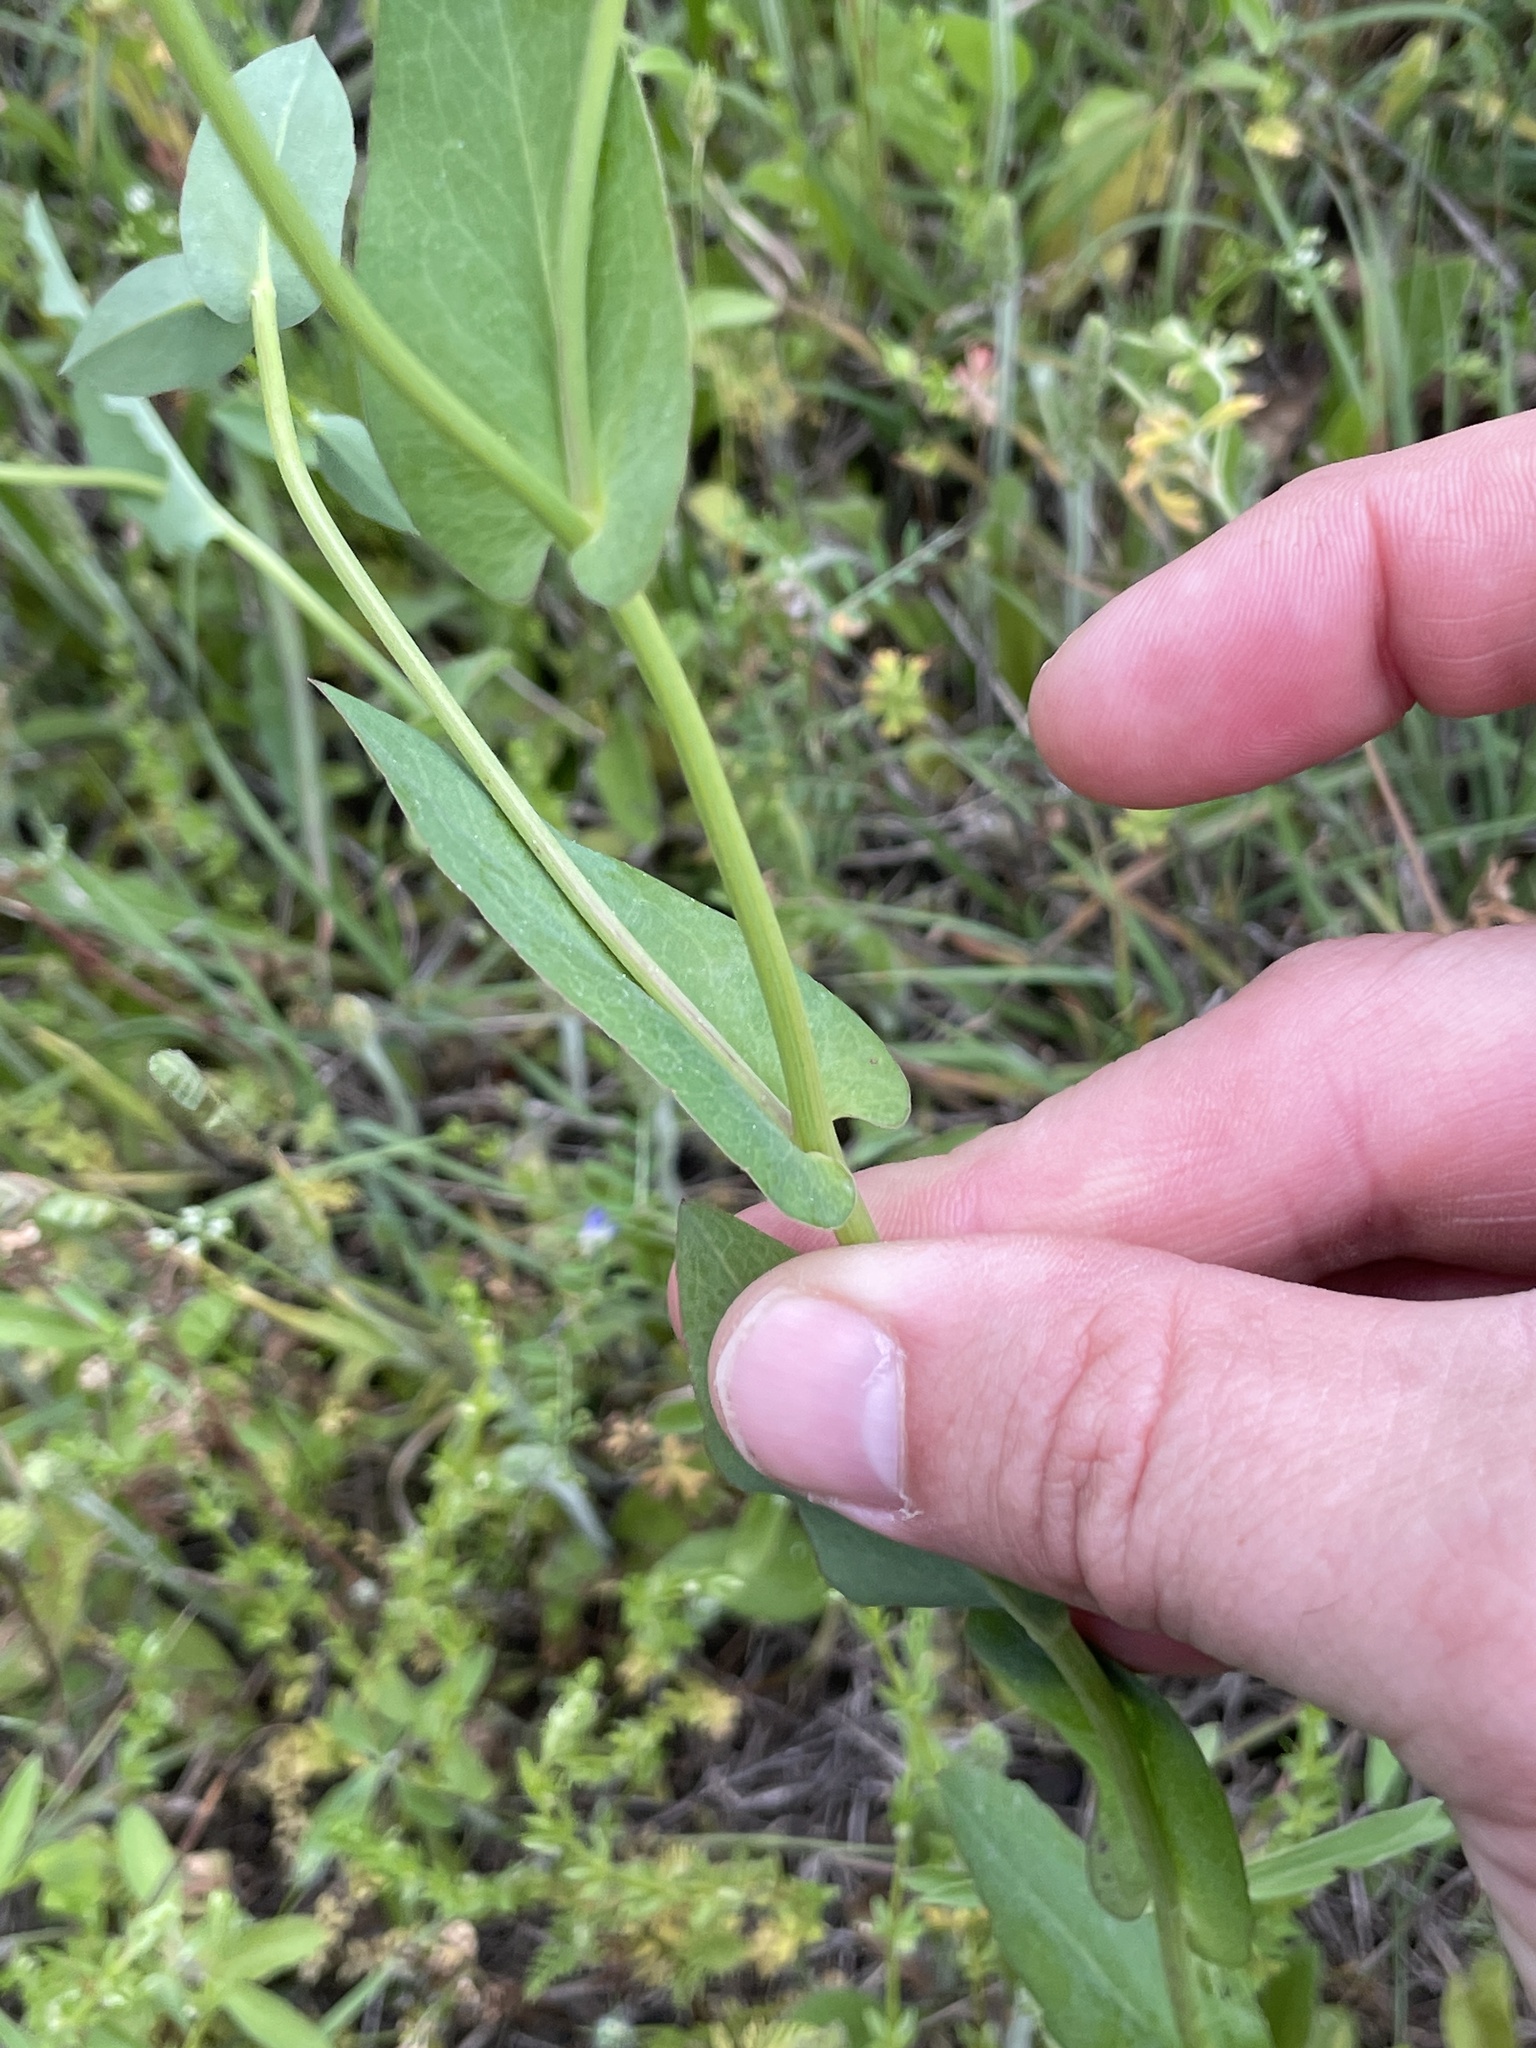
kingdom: Plantae
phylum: Tracheophyta
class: Magnoliopsida
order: Asterales
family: Asteraceae
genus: Rudbeckia
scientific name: Rudbeckia amplexicaulis
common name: Clasping-leaf coneflower
